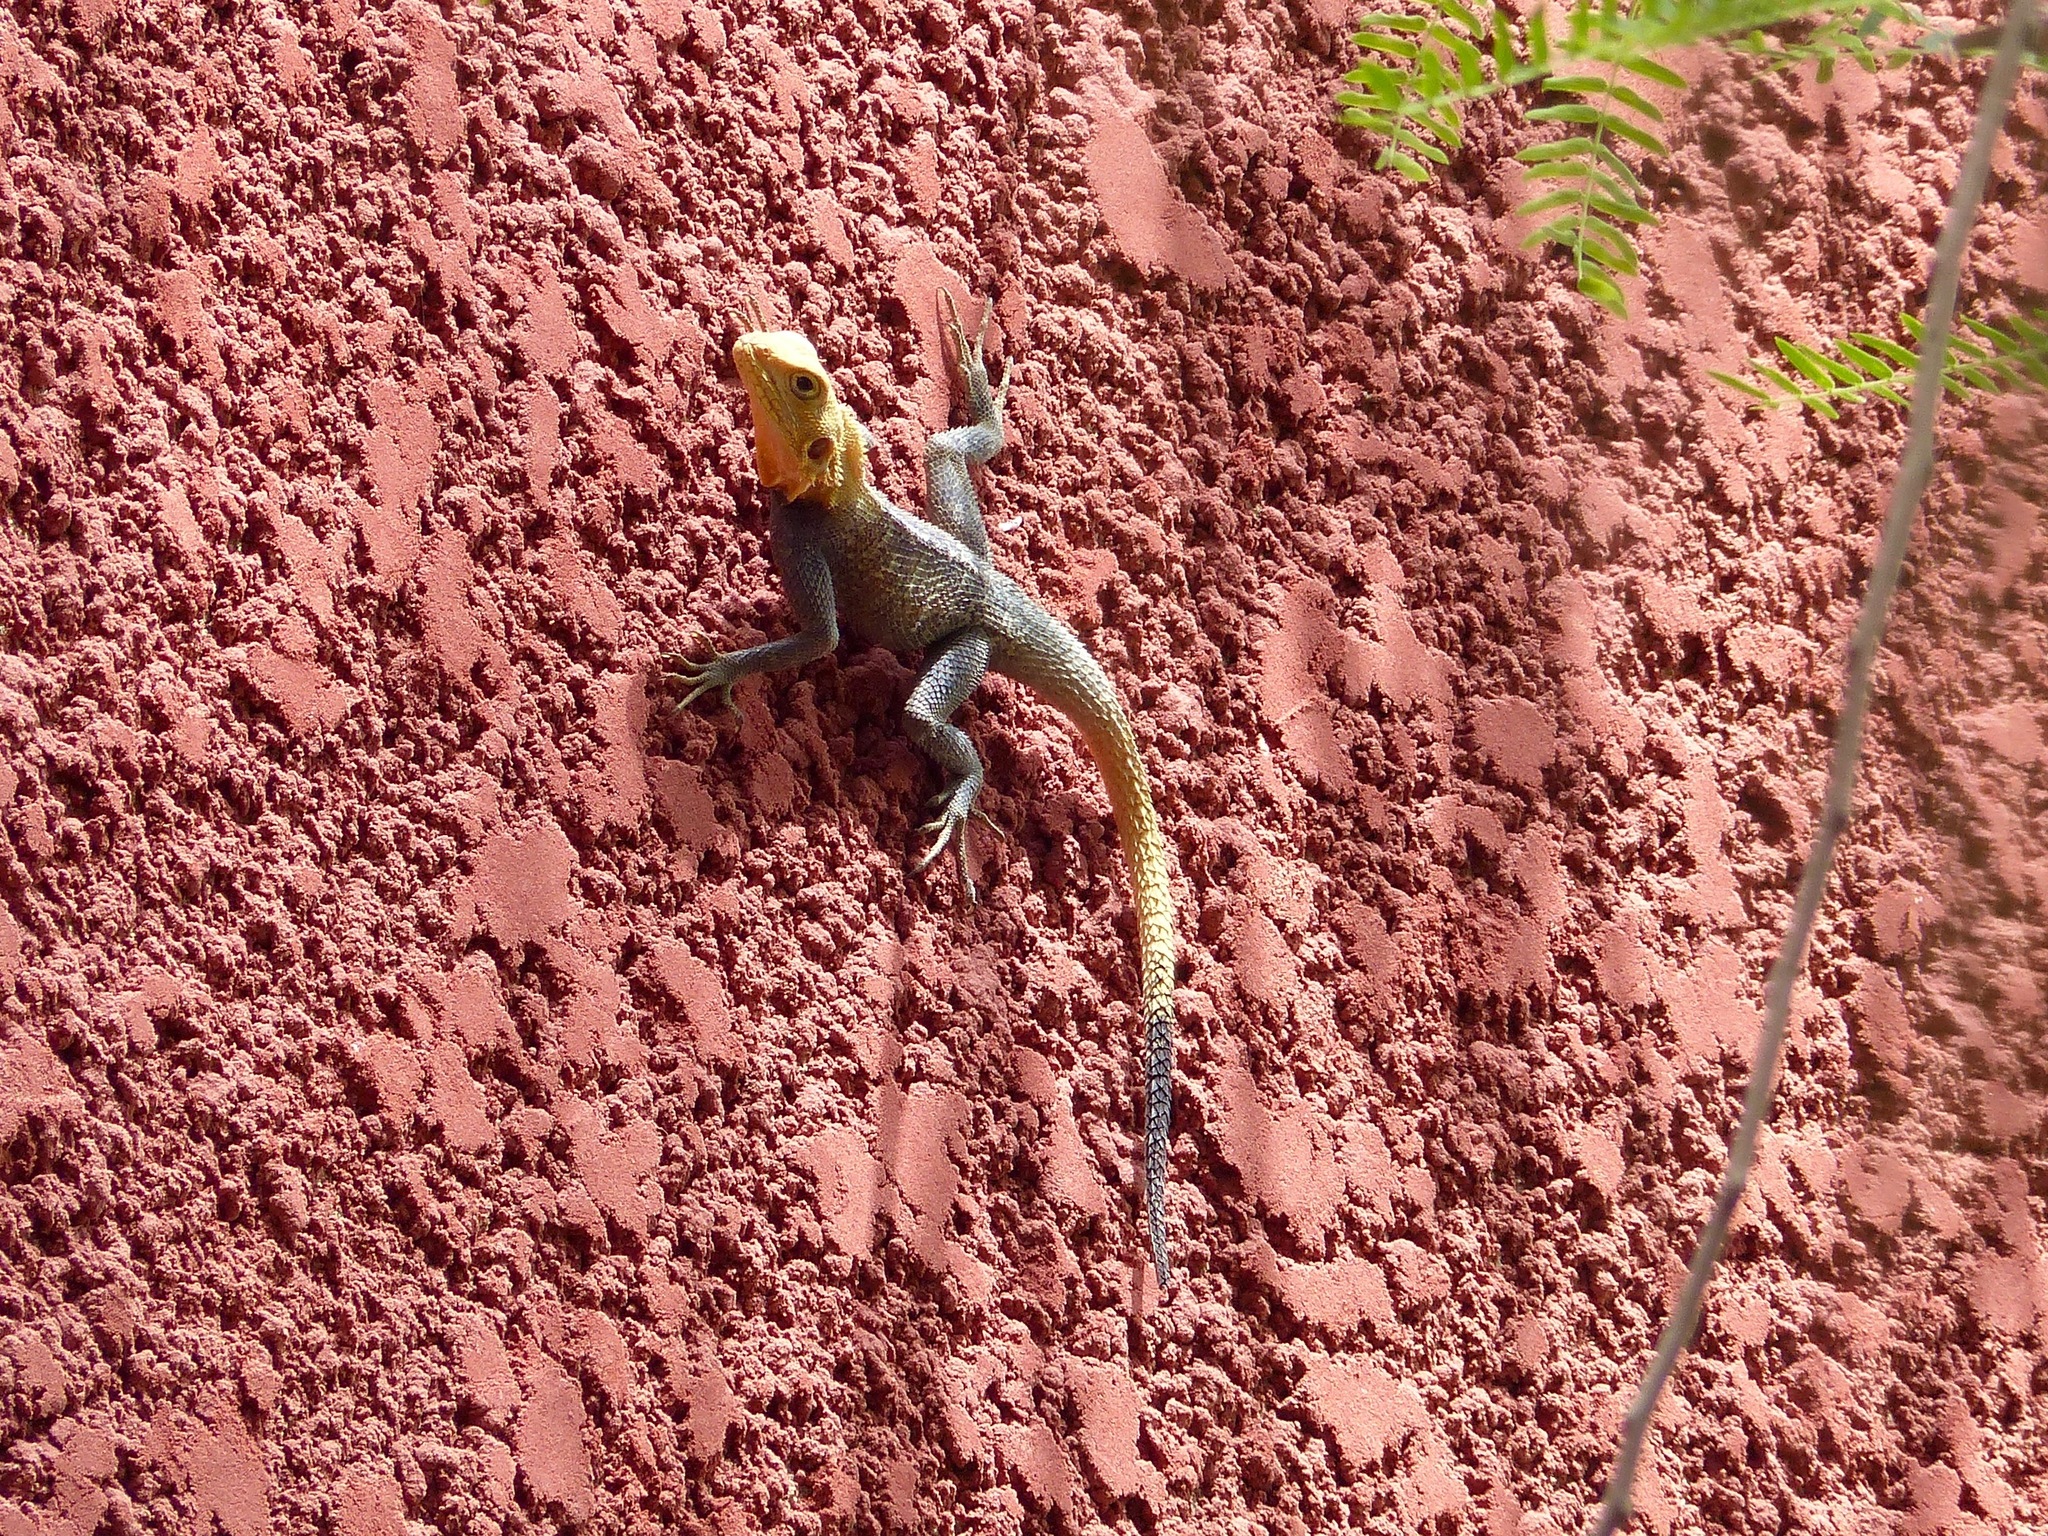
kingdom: Animalia
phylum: Chordata
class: Squamata
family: Agamidae
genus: Agama
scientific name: Agama agama
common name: Common agama
